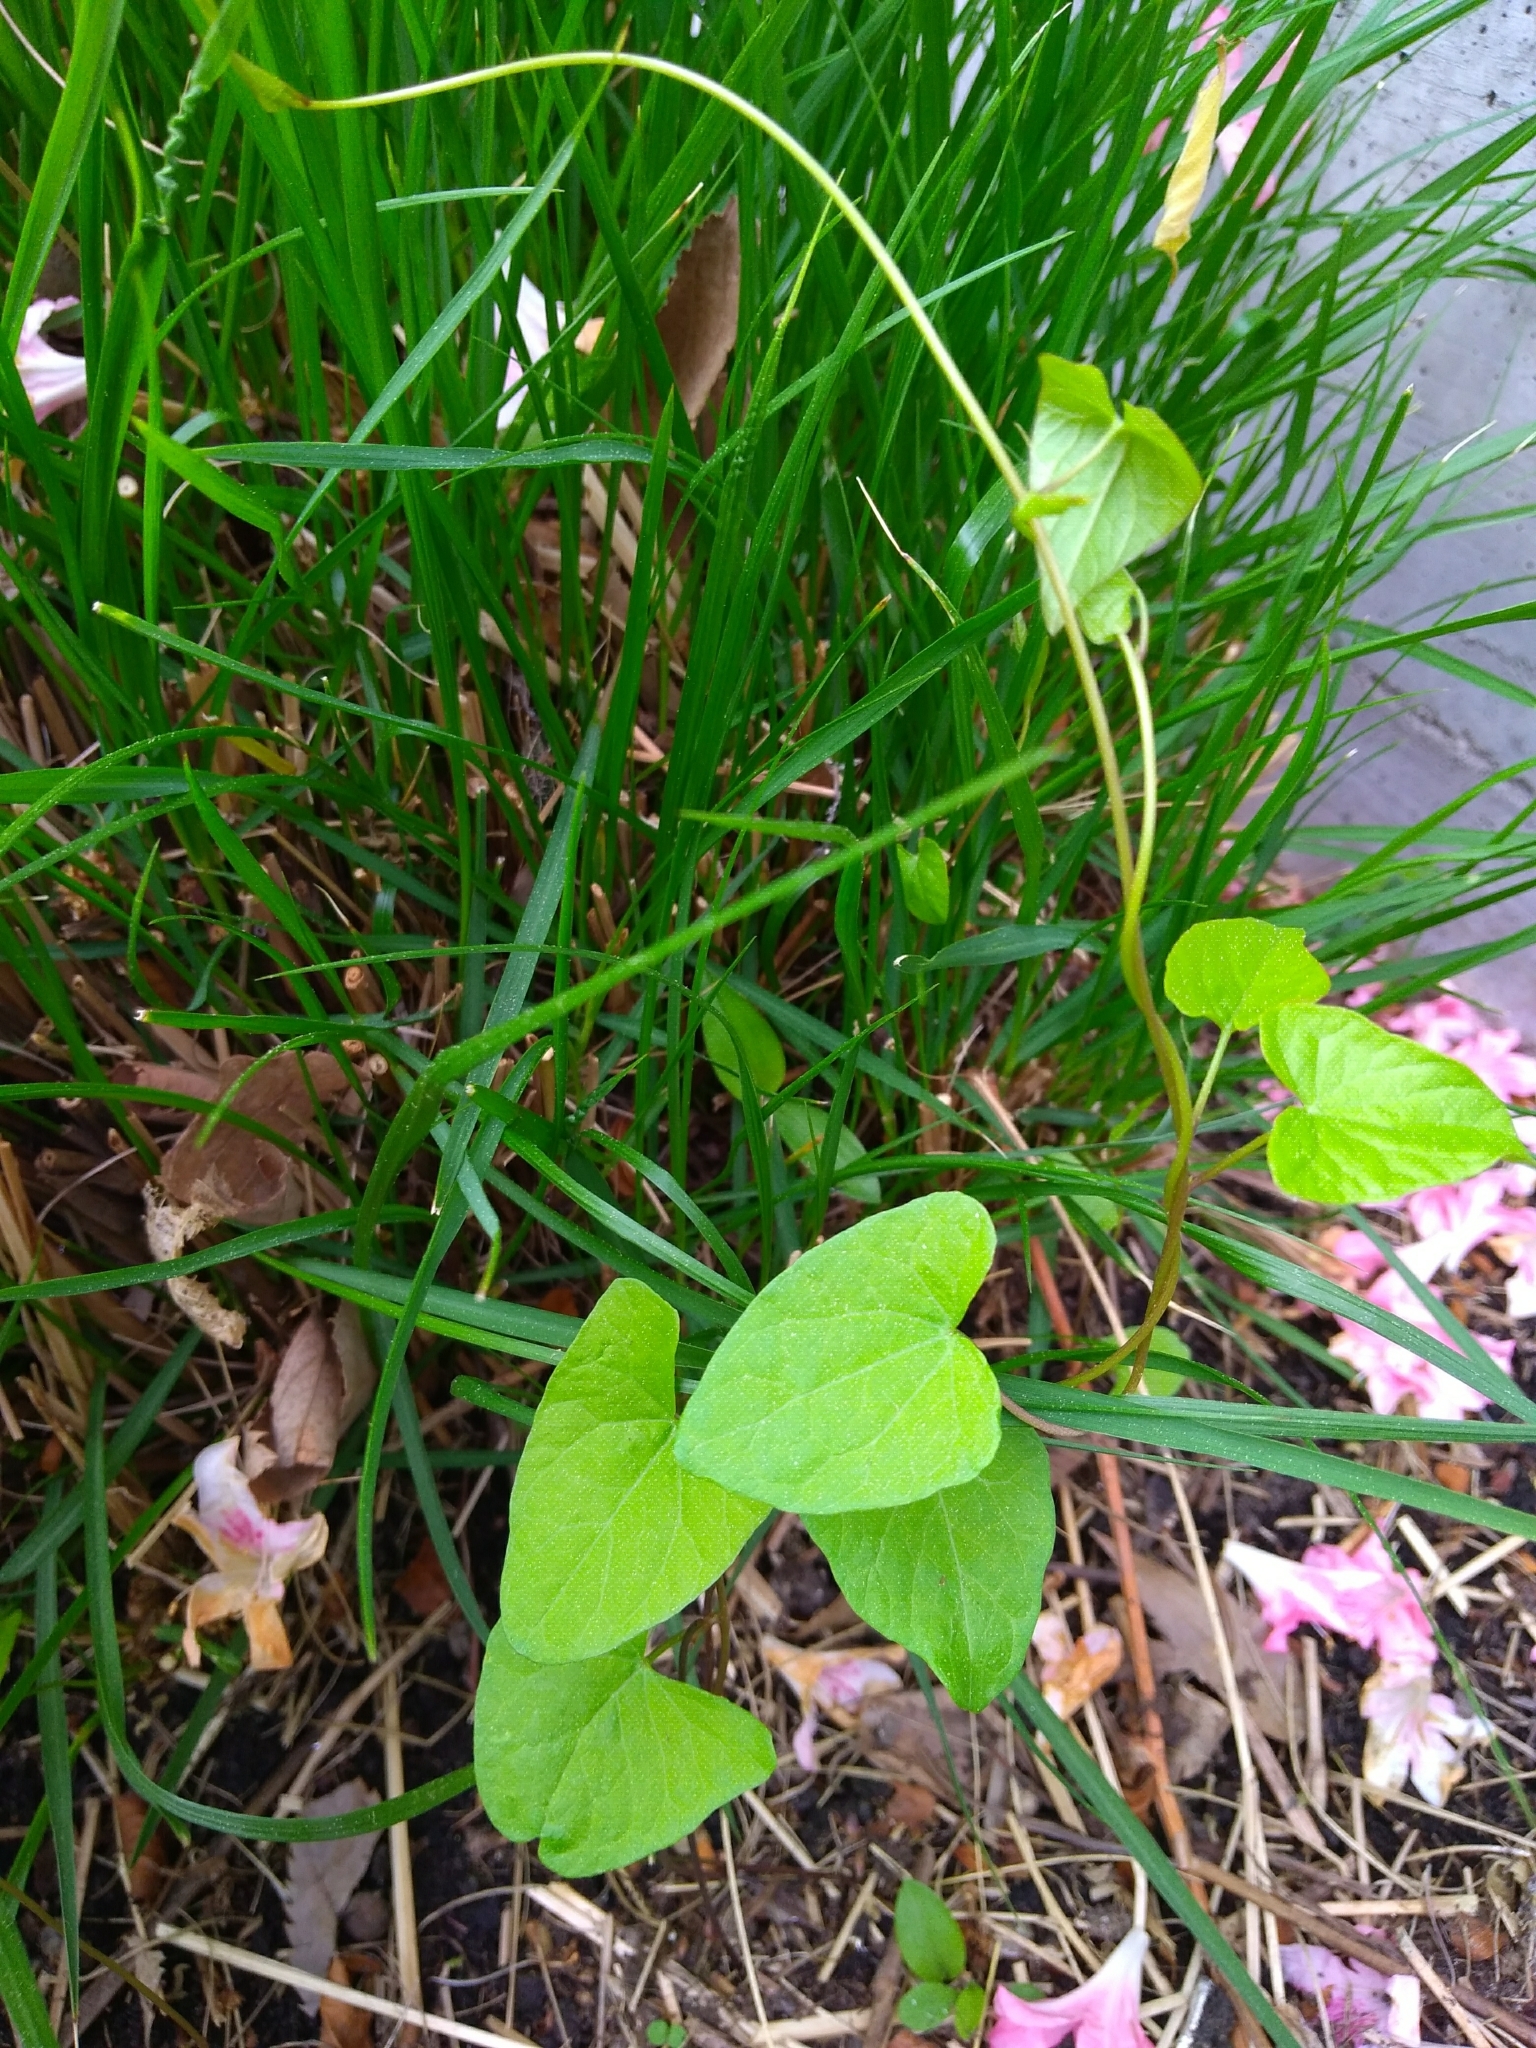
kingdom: Plantae
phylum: Tracheophyta
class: Magnoliopsida
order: Solanales
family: Convolvulaceae
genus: Calystegia
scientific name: Calystegia sepium
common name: Hedge bindweed
